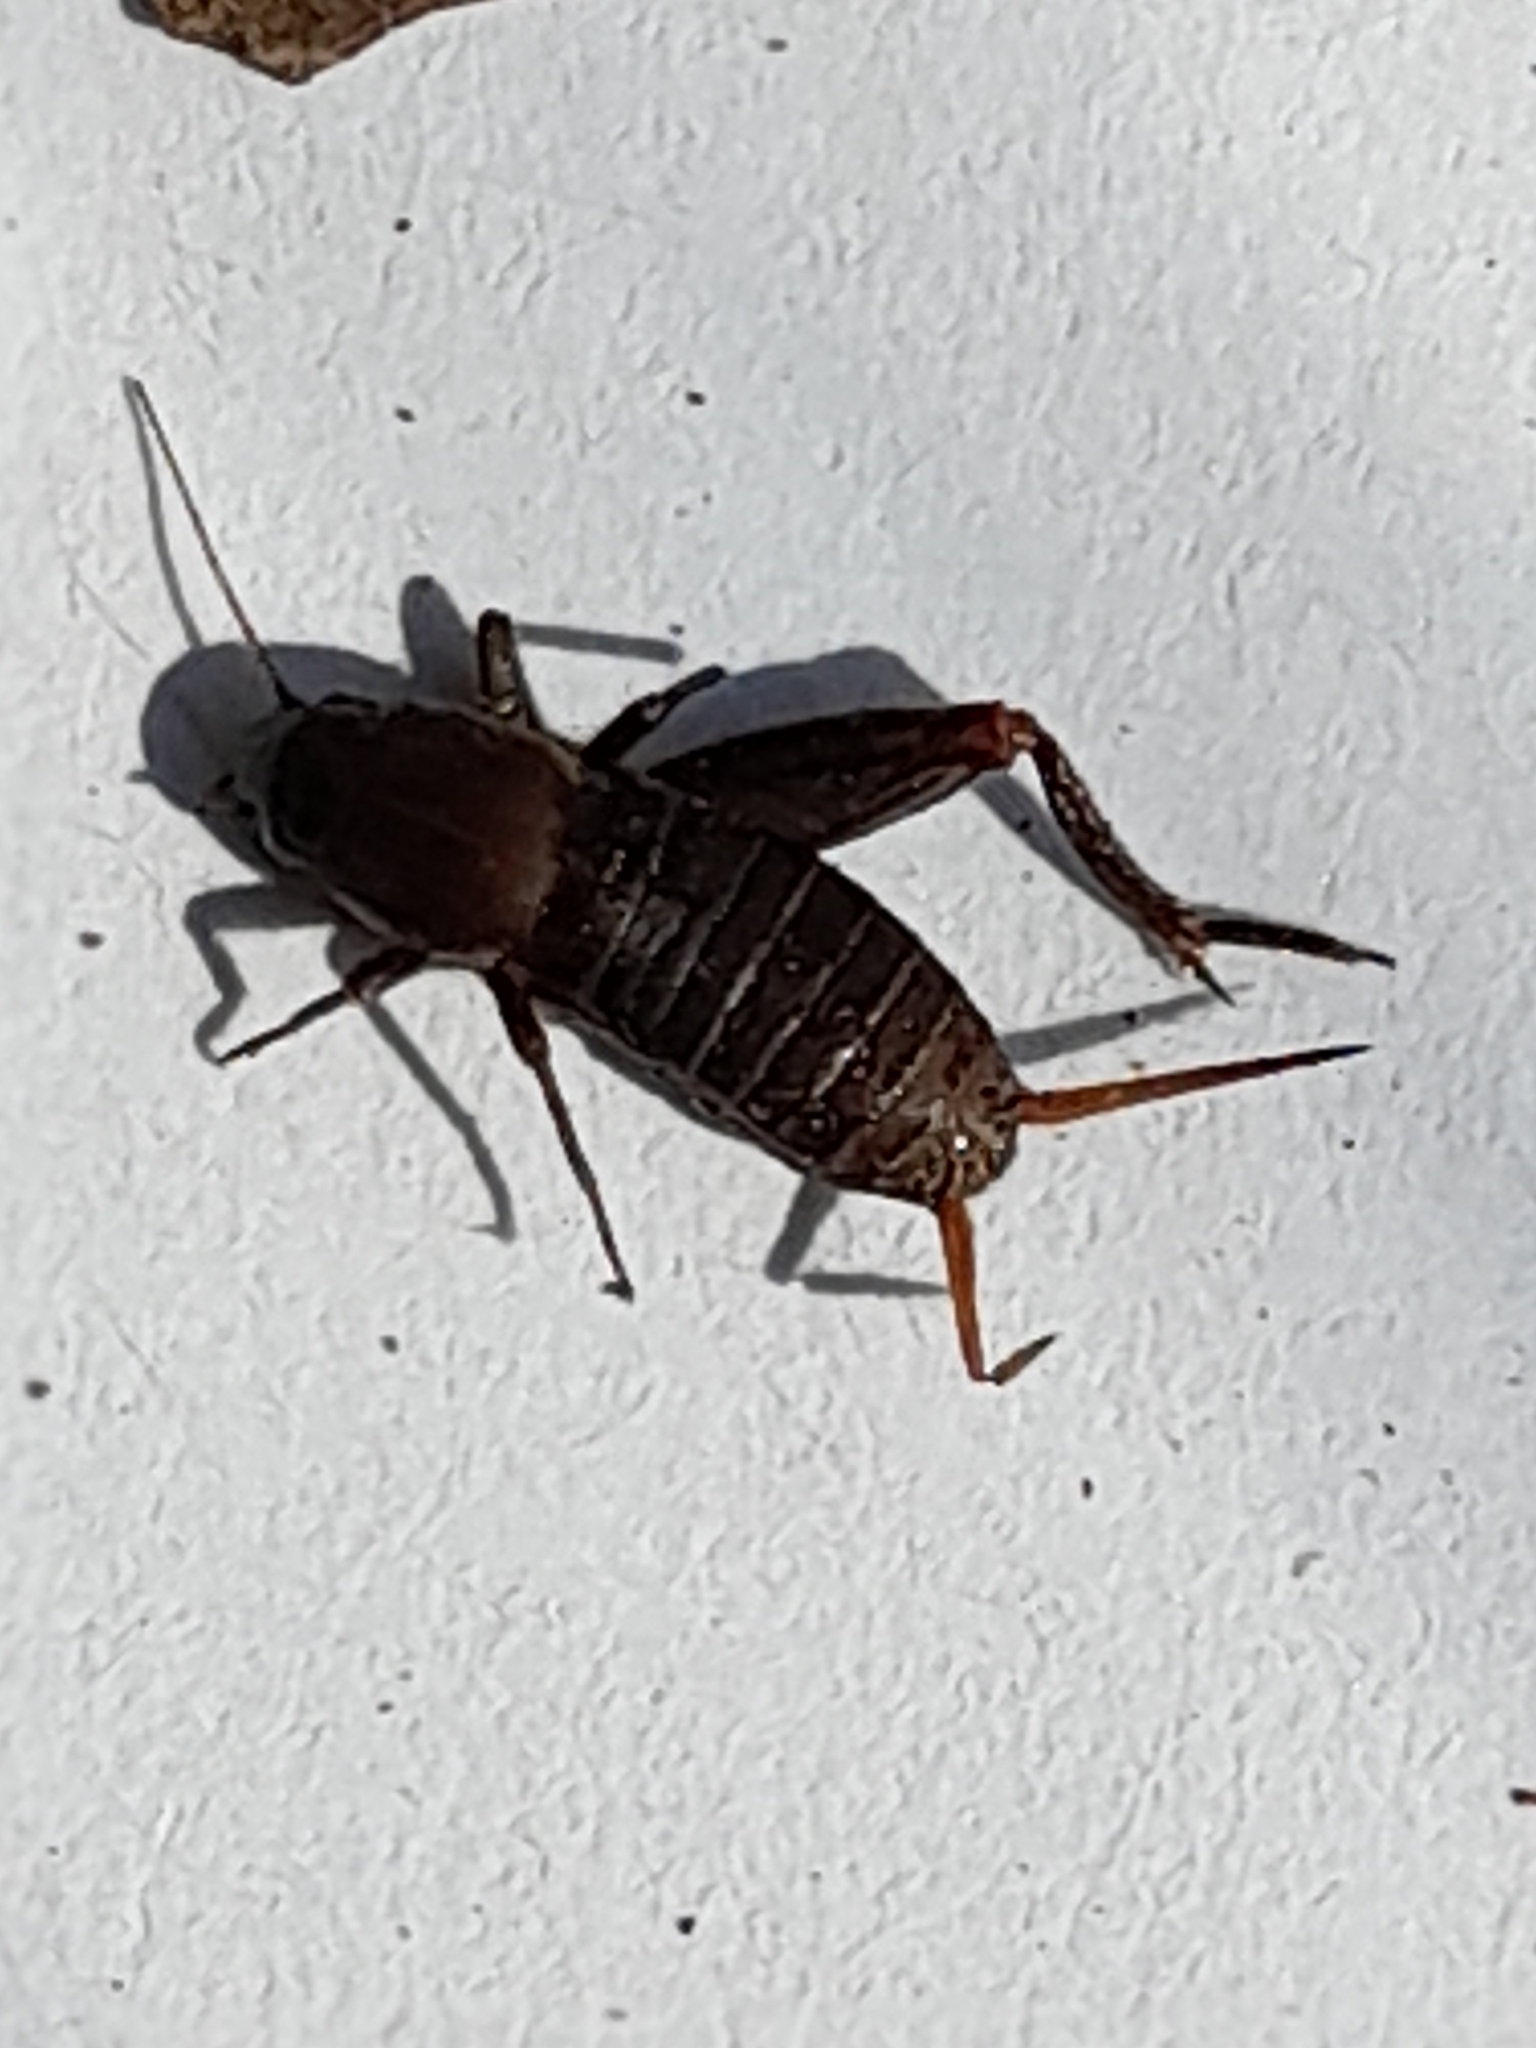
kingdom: Animalia
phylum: Arthropoda
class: Insecta
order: Orthoptera
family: Mogoplistidae
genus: Mogoplistes
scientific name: Mogoplistes brunneus
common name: Brown scale-cricket
